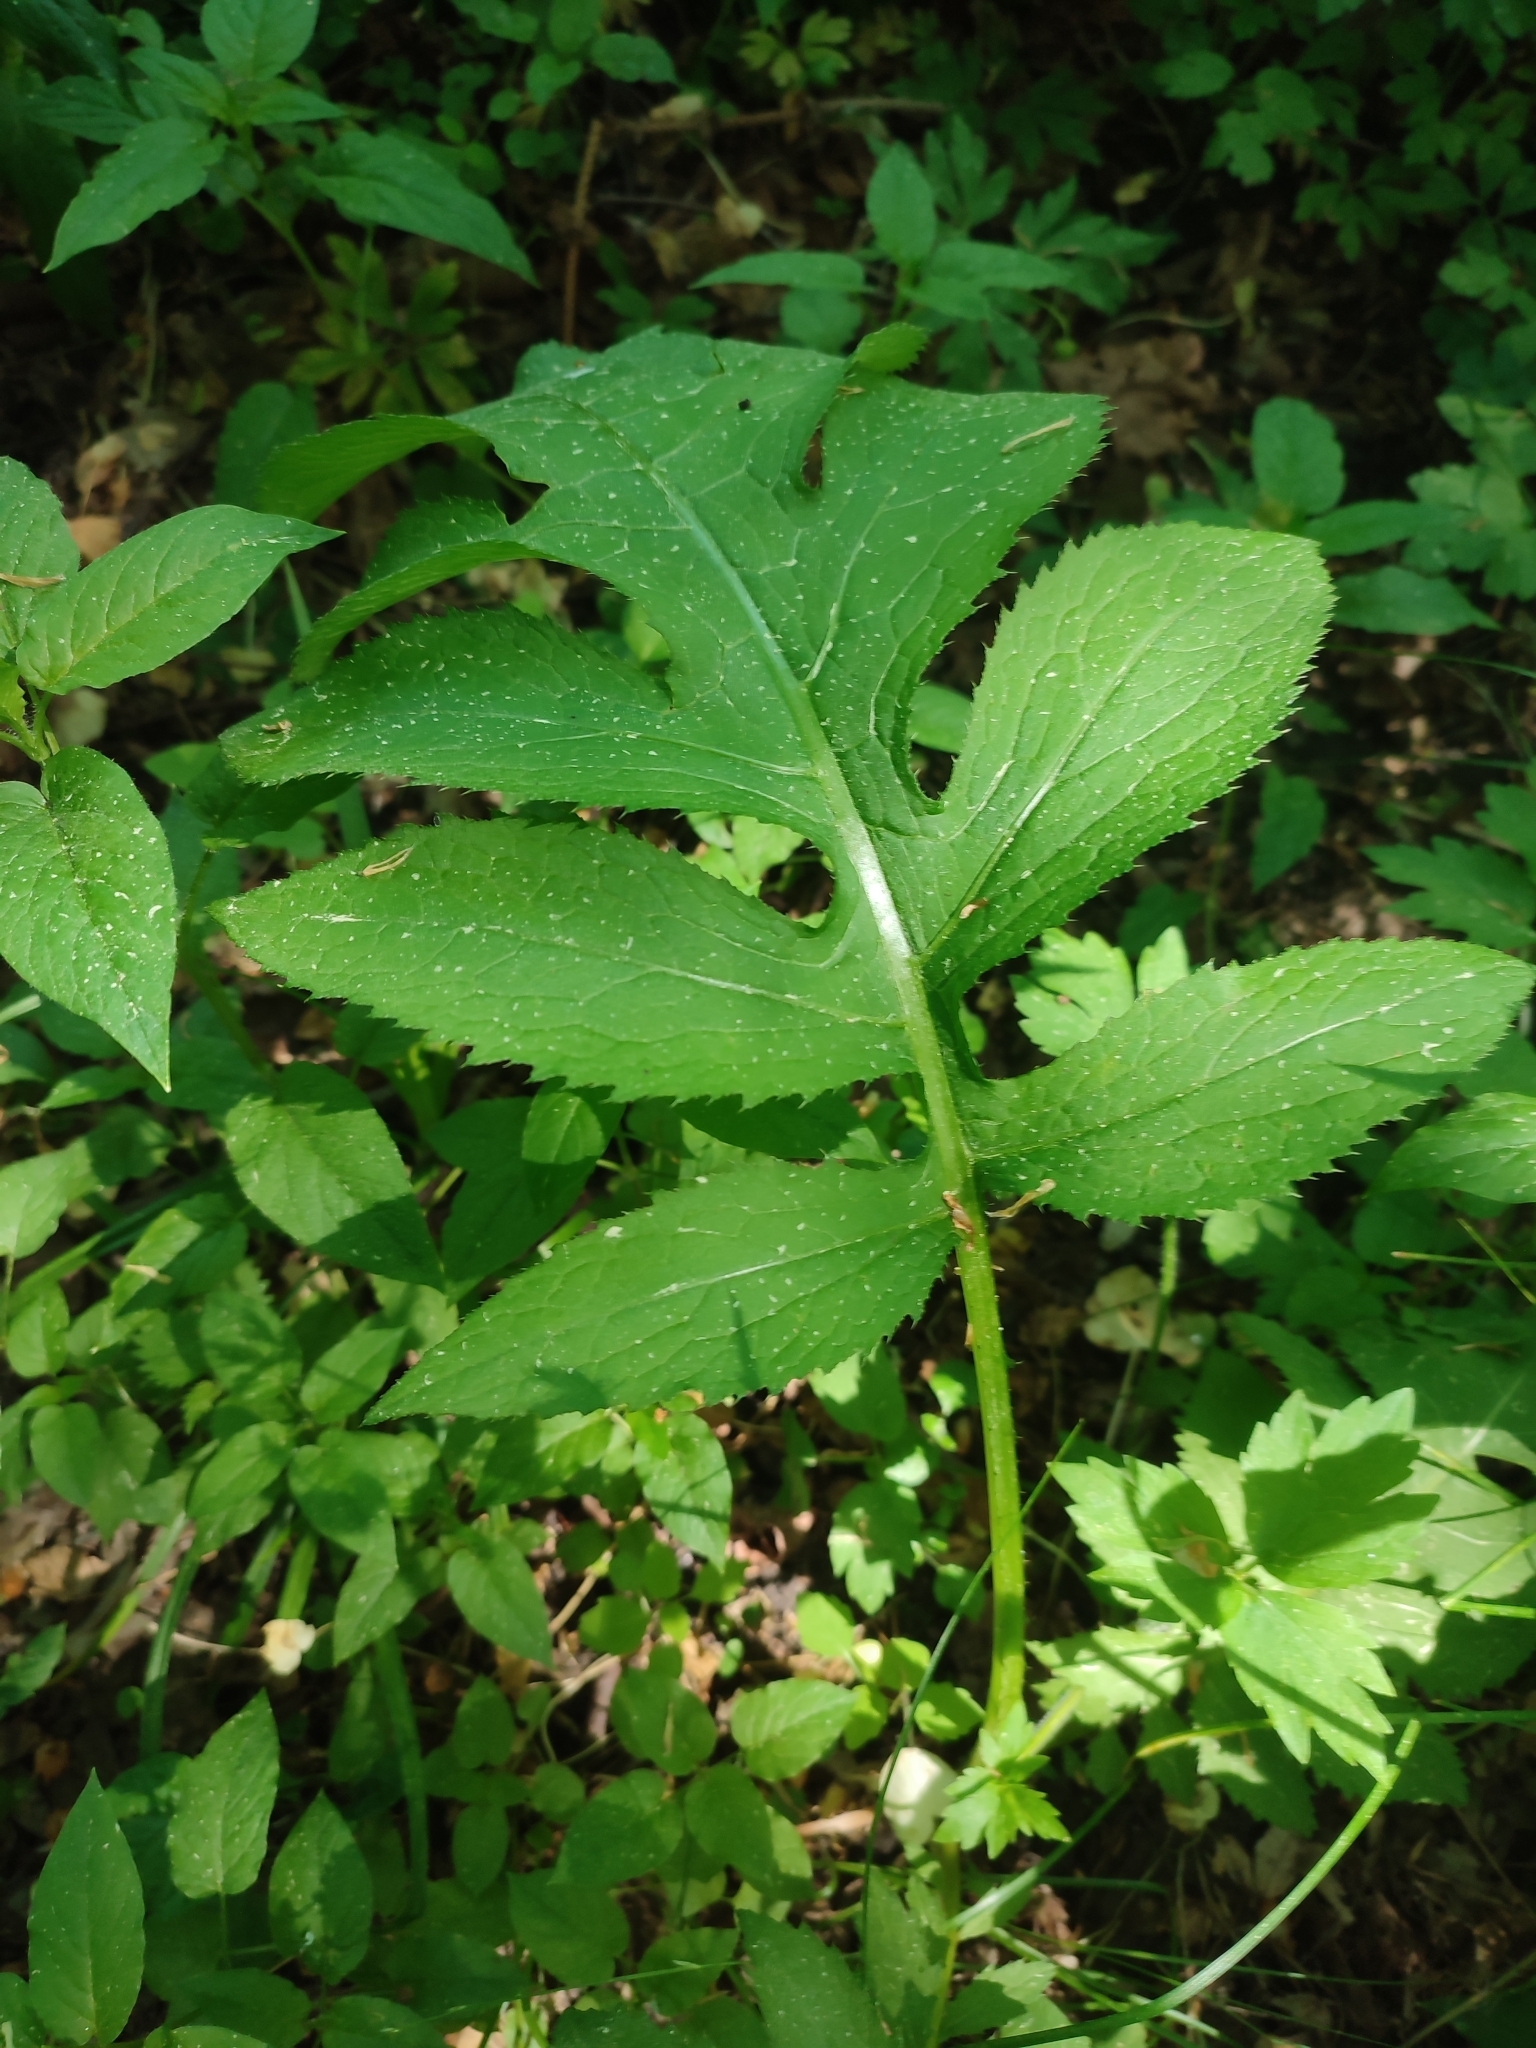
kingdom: Plantae
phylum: Tracheophyta
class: Magnoliopsida
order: Asterales
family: Asteraceae
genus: Cirsium
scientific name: Cirsium oleraceum
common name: Cabbage thistle
